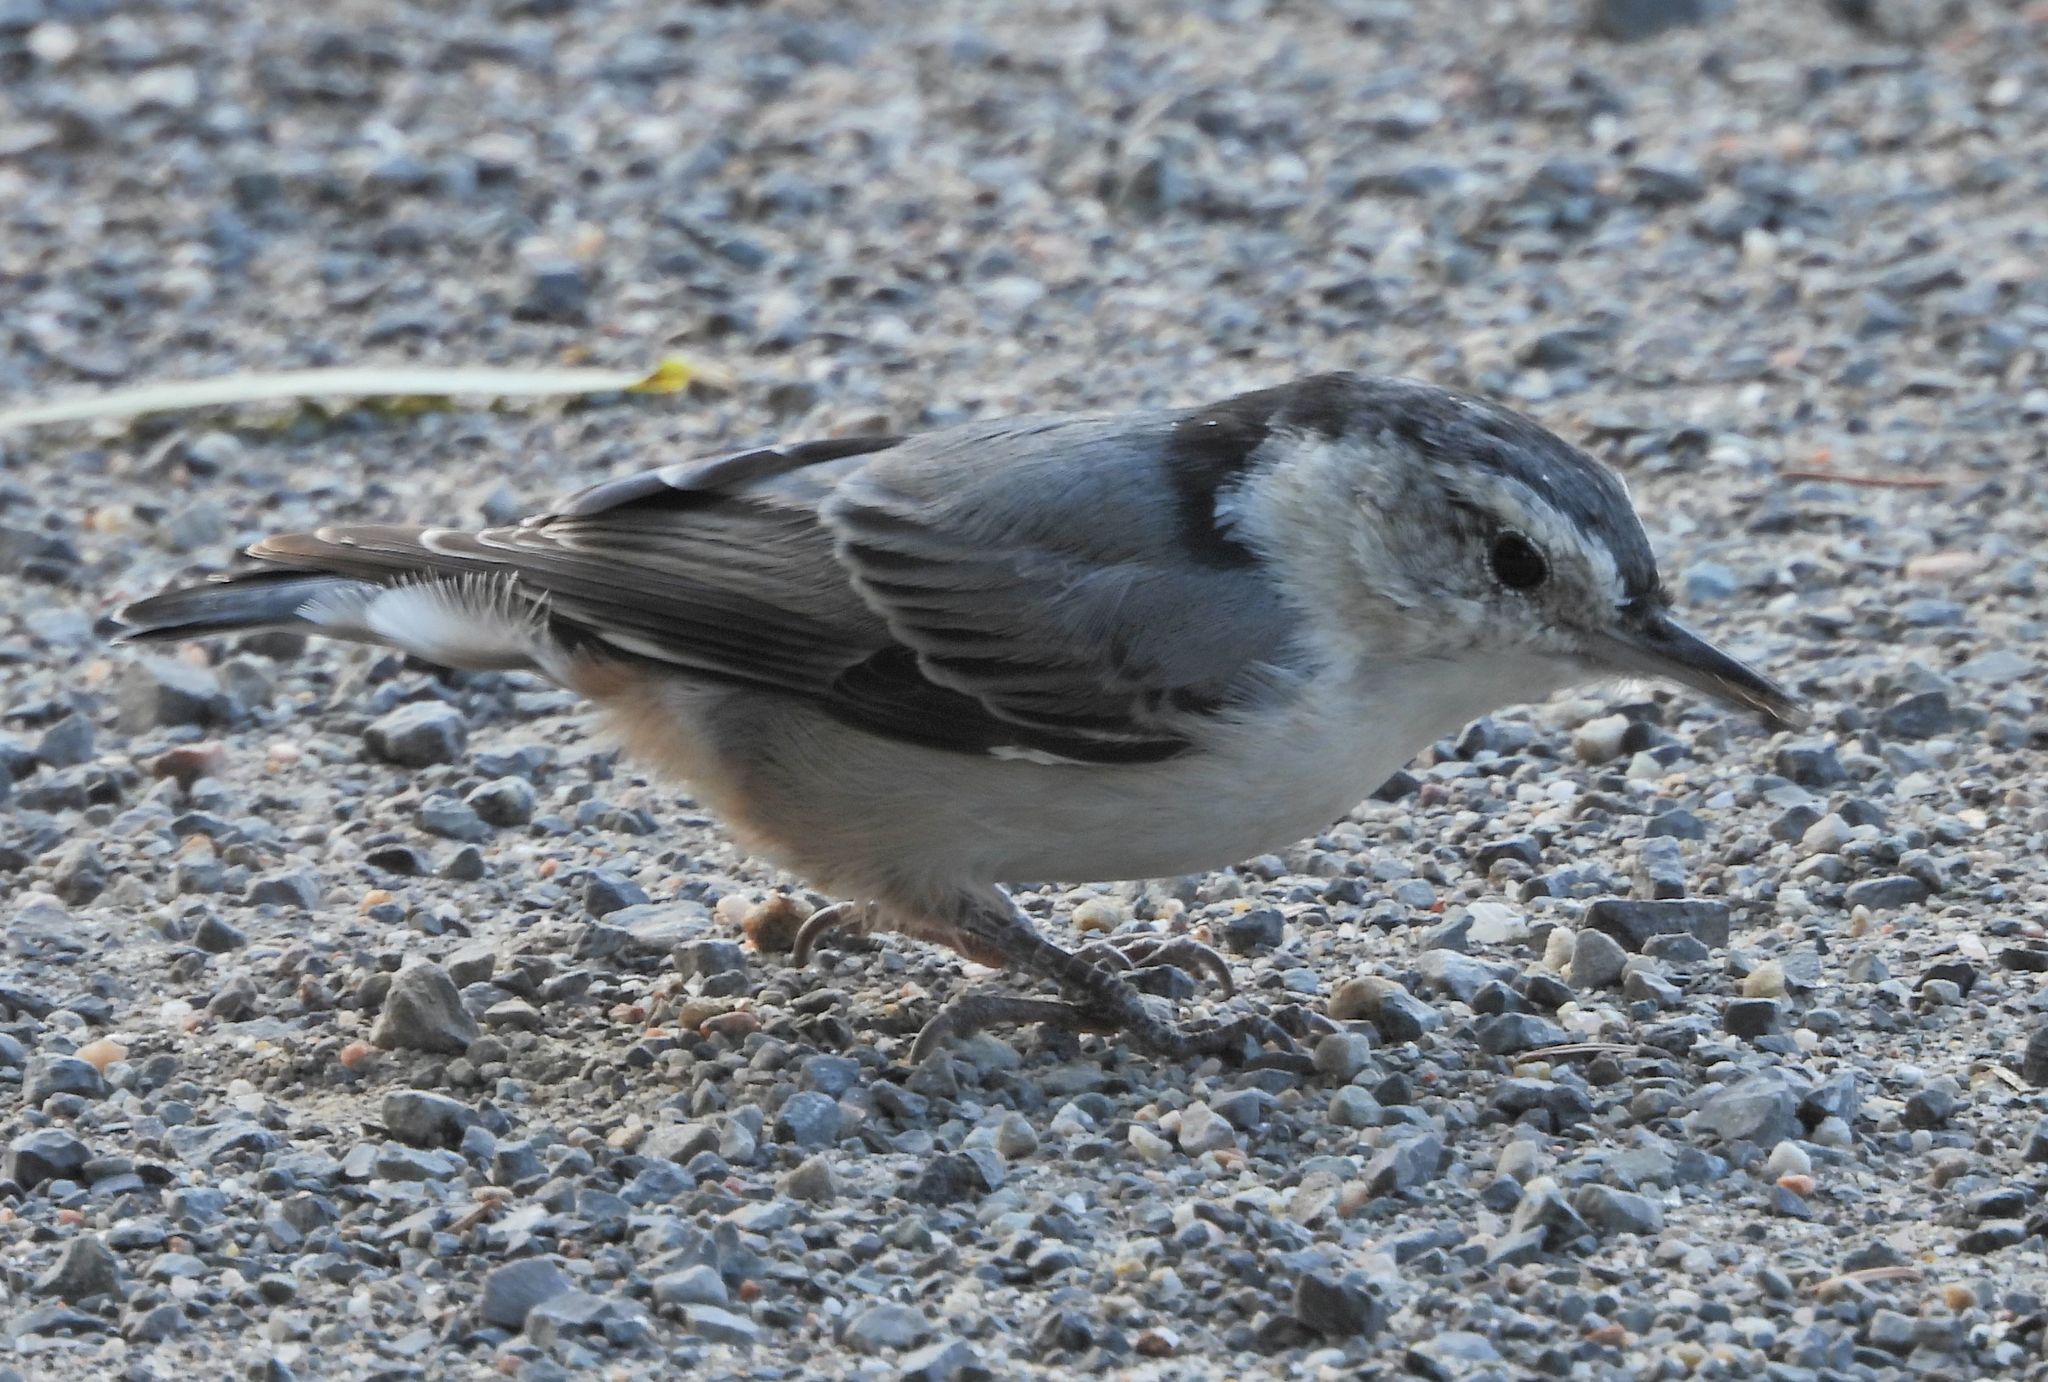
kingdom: Animalia
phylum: Chordata
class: Aves
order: Passeriformes
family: Sittidae
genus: Sitta
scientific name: Sitta carolinensis
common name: White-breasted nuthatch
